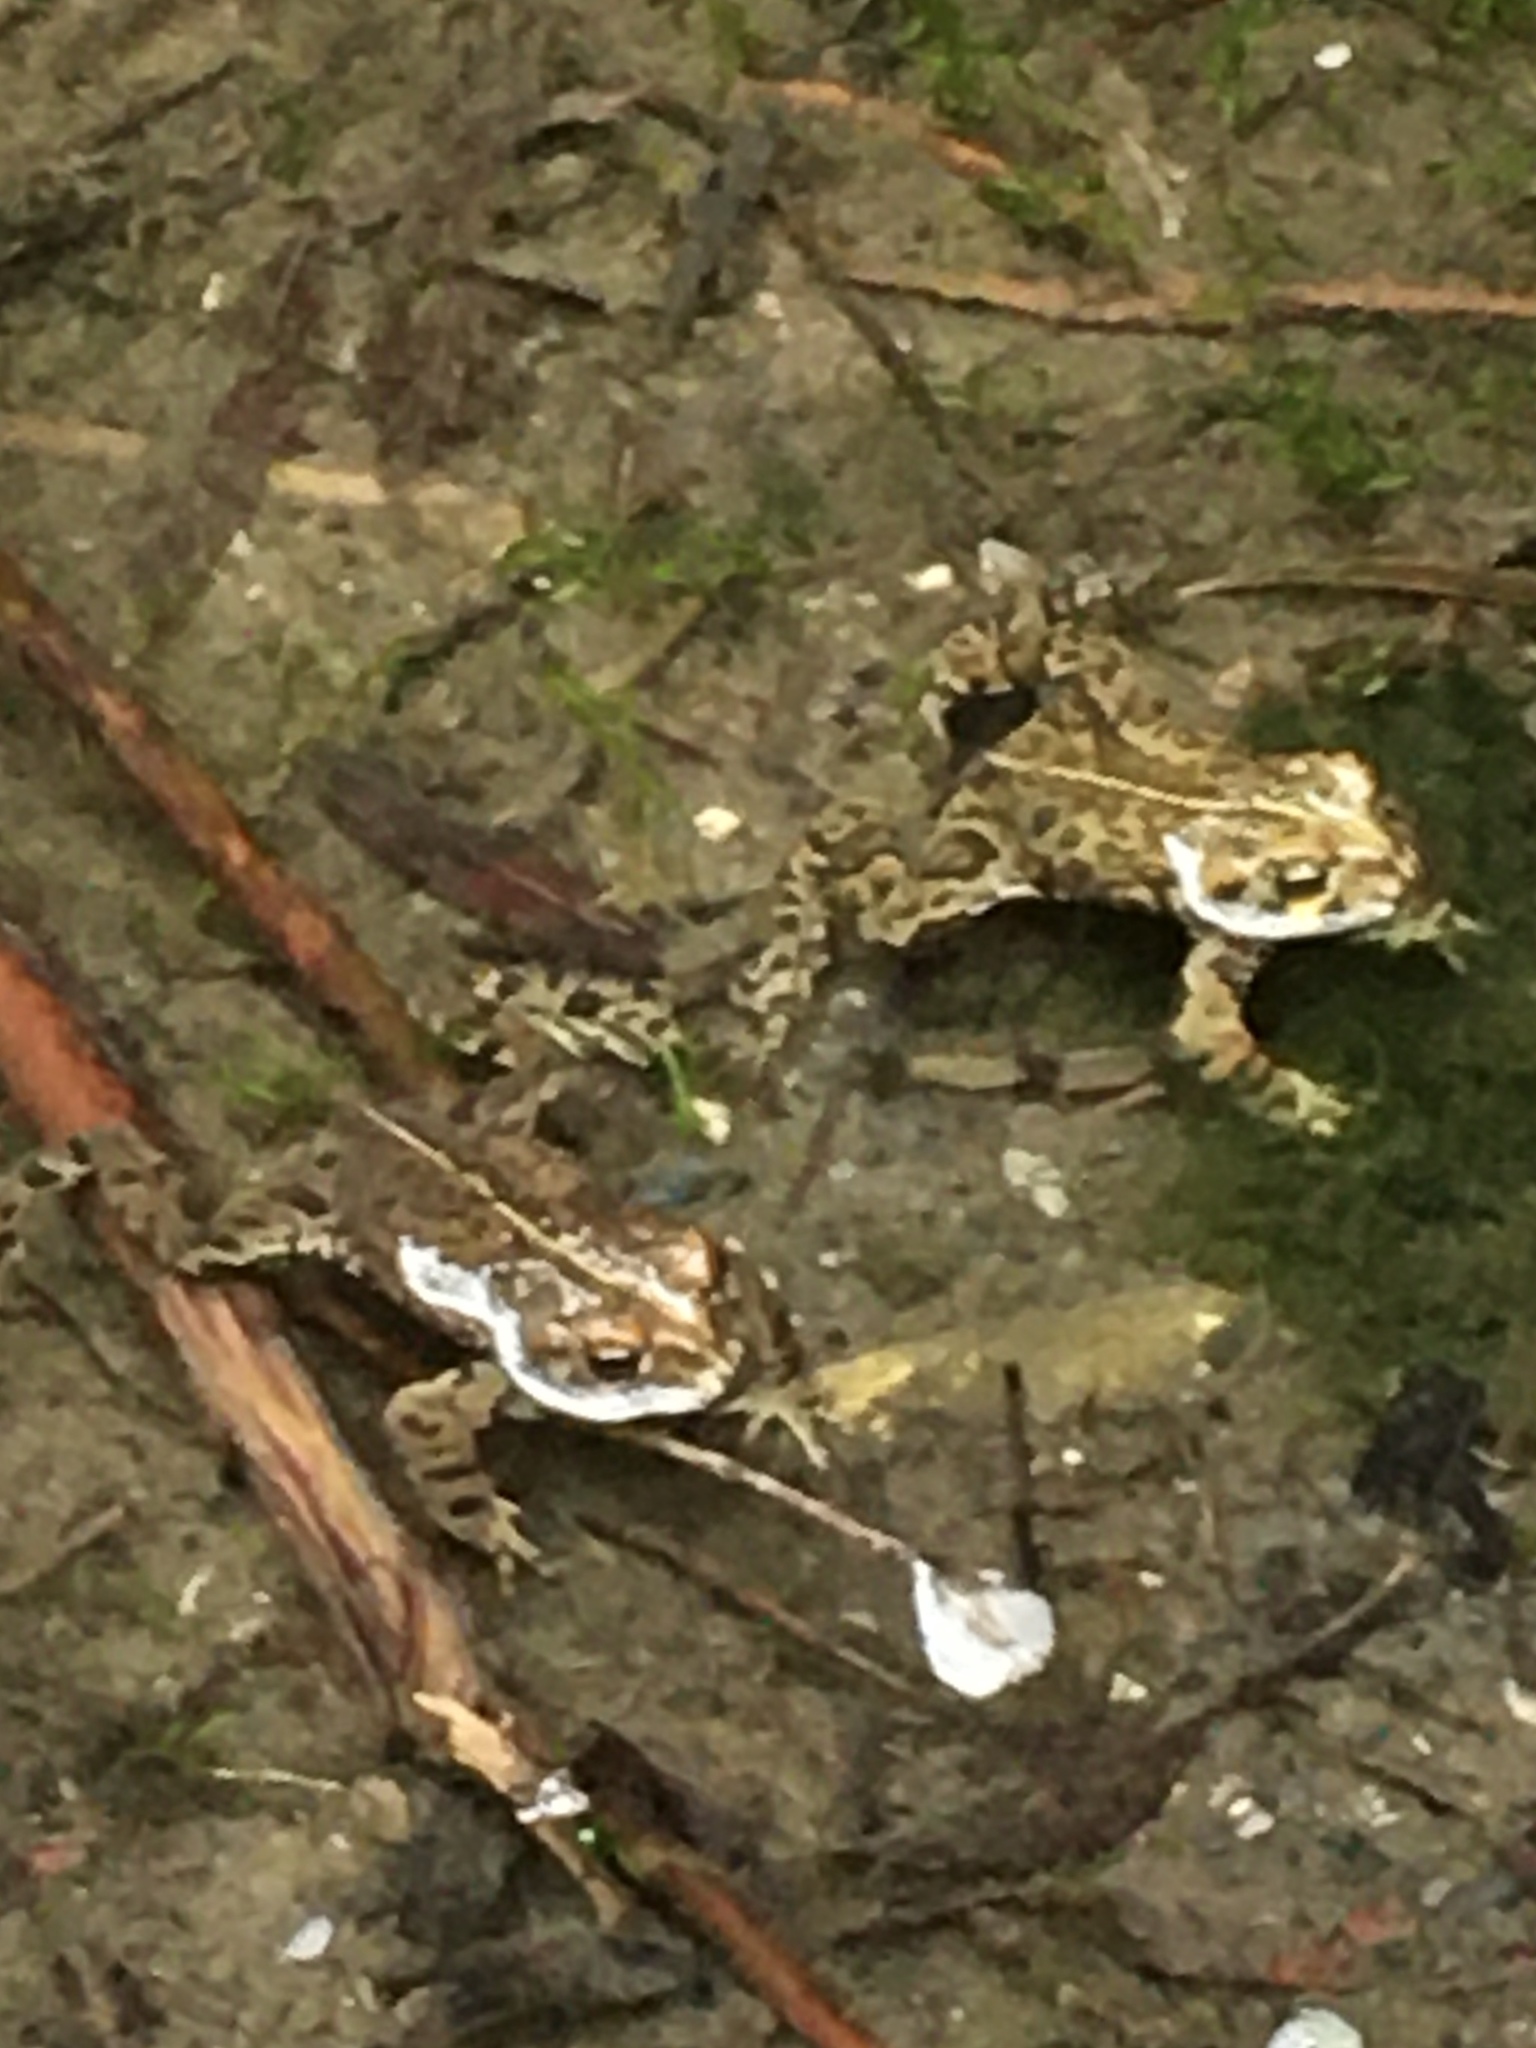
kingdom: Animalia
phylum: Chordata
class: Amphibia
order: Anura
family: Bufonidae
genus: Anaxyrus
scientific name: Anaxyrus boreas
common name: Western toad
